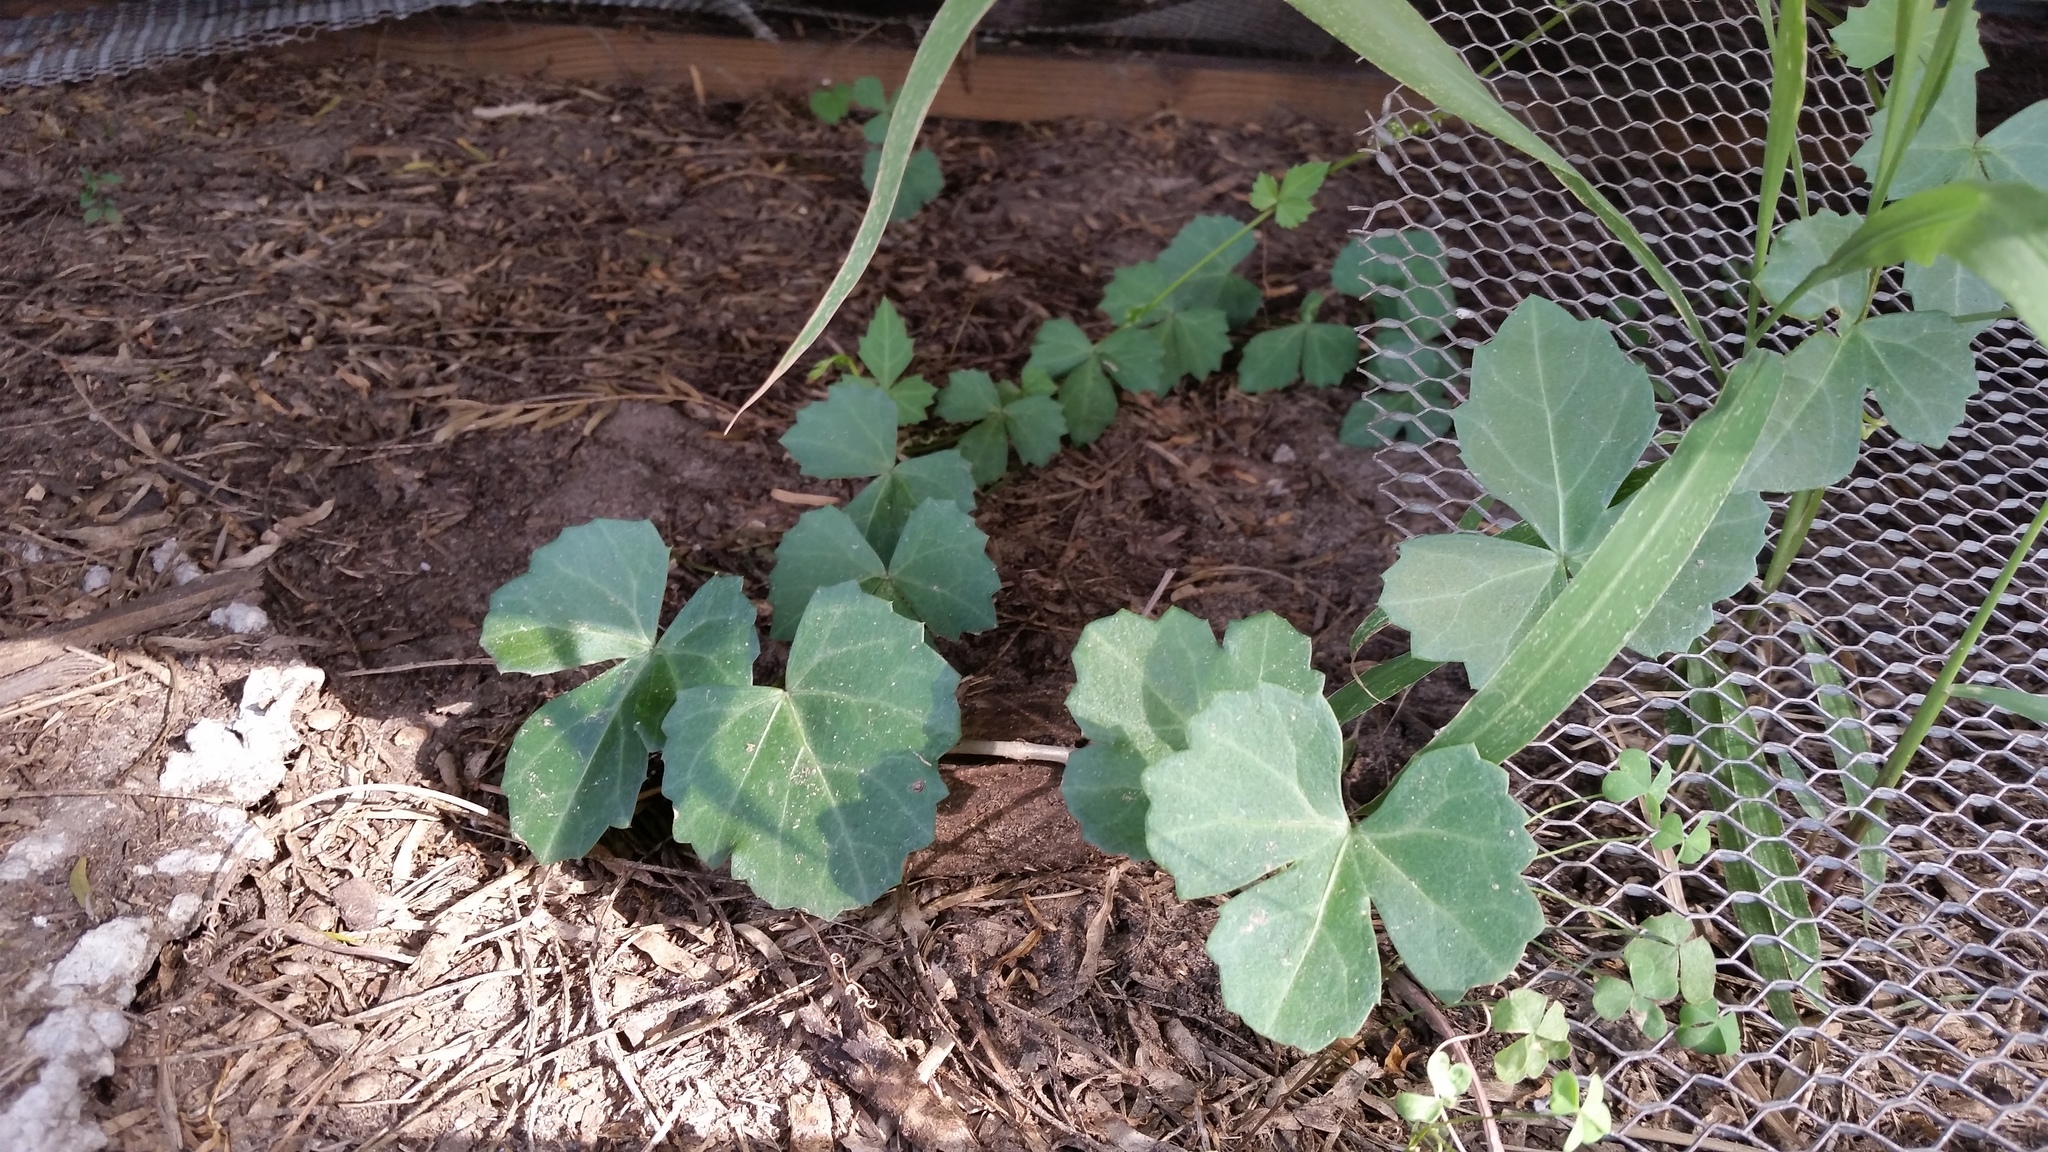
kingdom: Plantae
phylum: Tracheophyta
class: Magnoliopsida
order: Vitales
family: Vitaceae
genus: Cissus
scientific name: Cissus trifoliata
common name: Vine-sorrel
